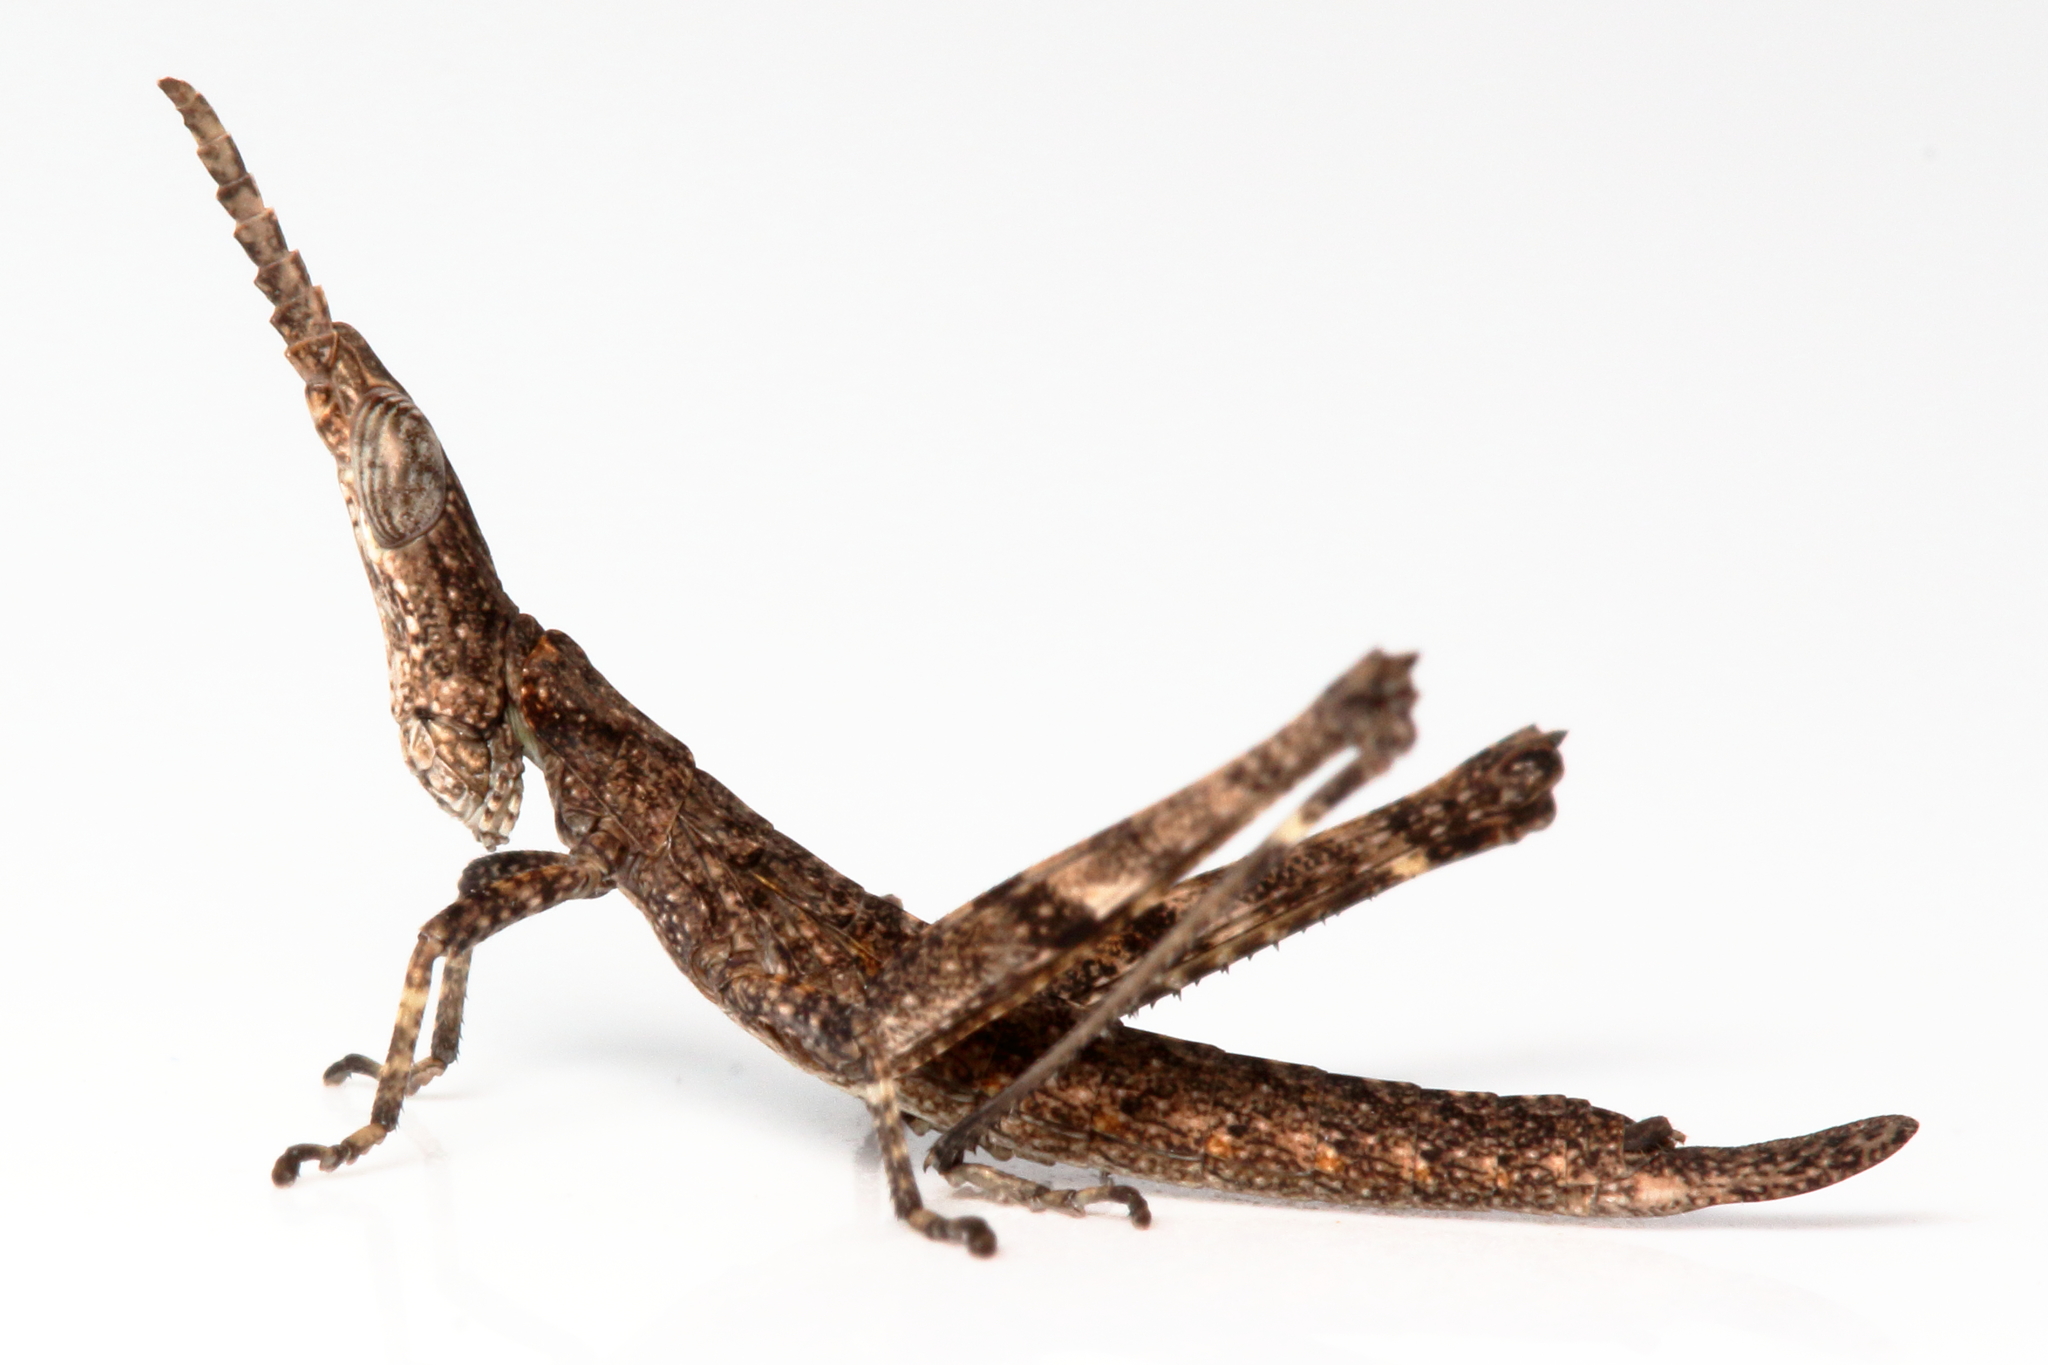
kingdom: Animalia
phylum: Arthropoda
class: Insecta
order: Orthoptera
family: Morabidae
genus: Vandiemenella
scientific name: Vandiemenella viatica
